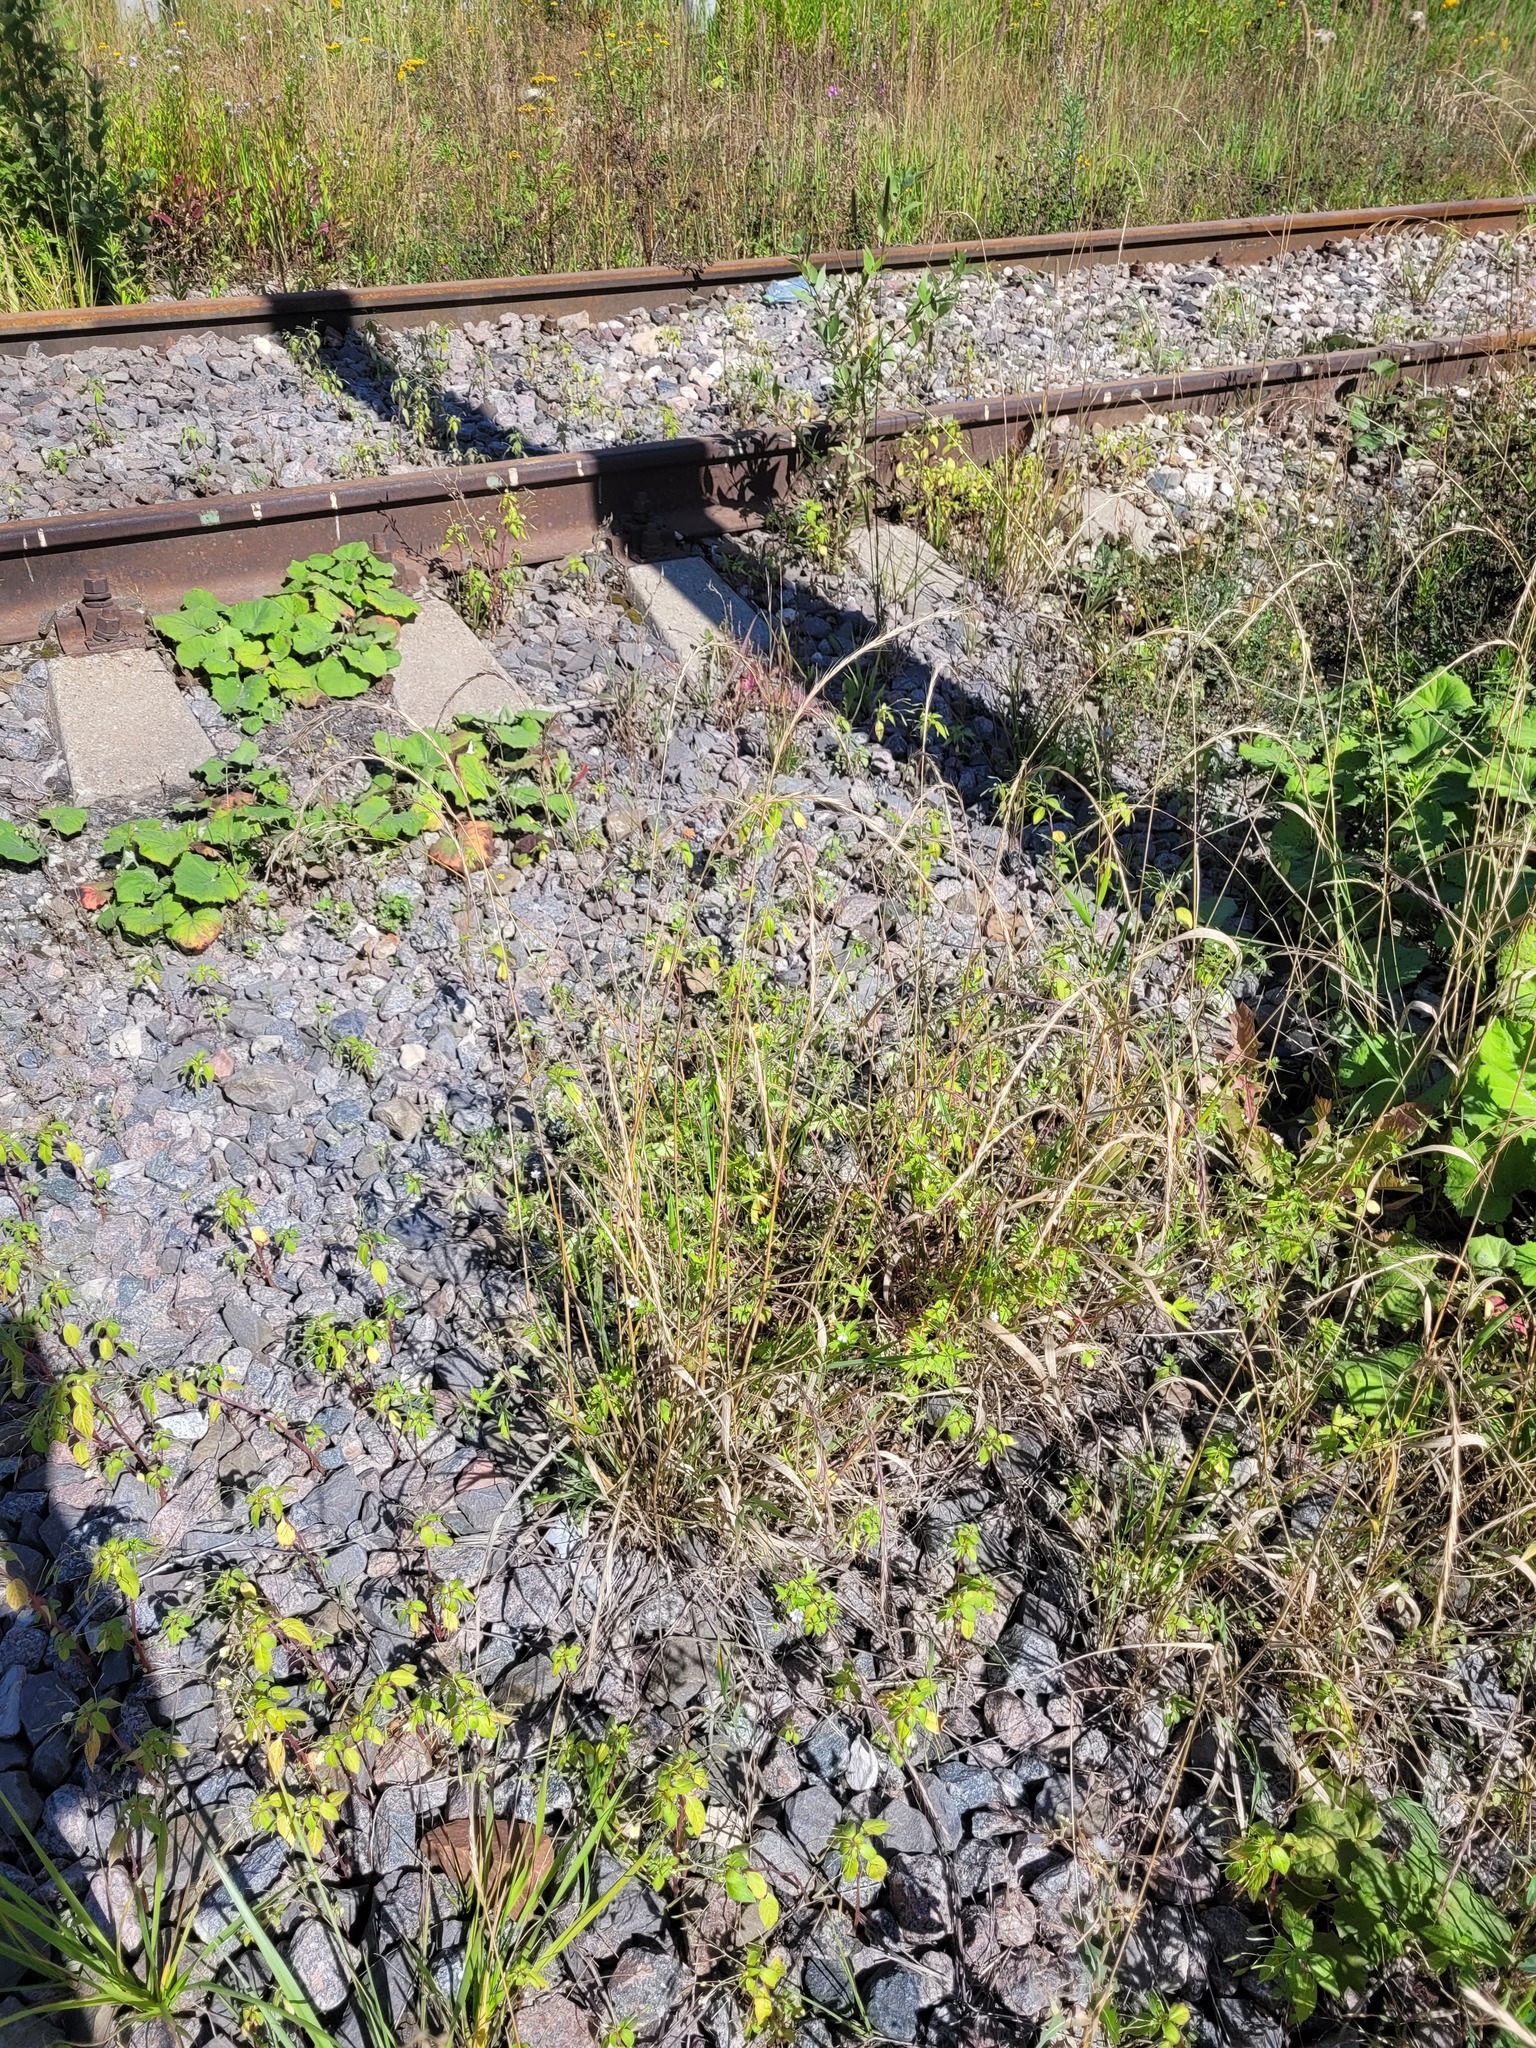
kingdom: Plantae
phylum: Tracheophyta
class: Liliopsida
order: Poales
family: Poaceae
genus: Elymus
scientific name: Elymus caninus
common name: Bearded couch
